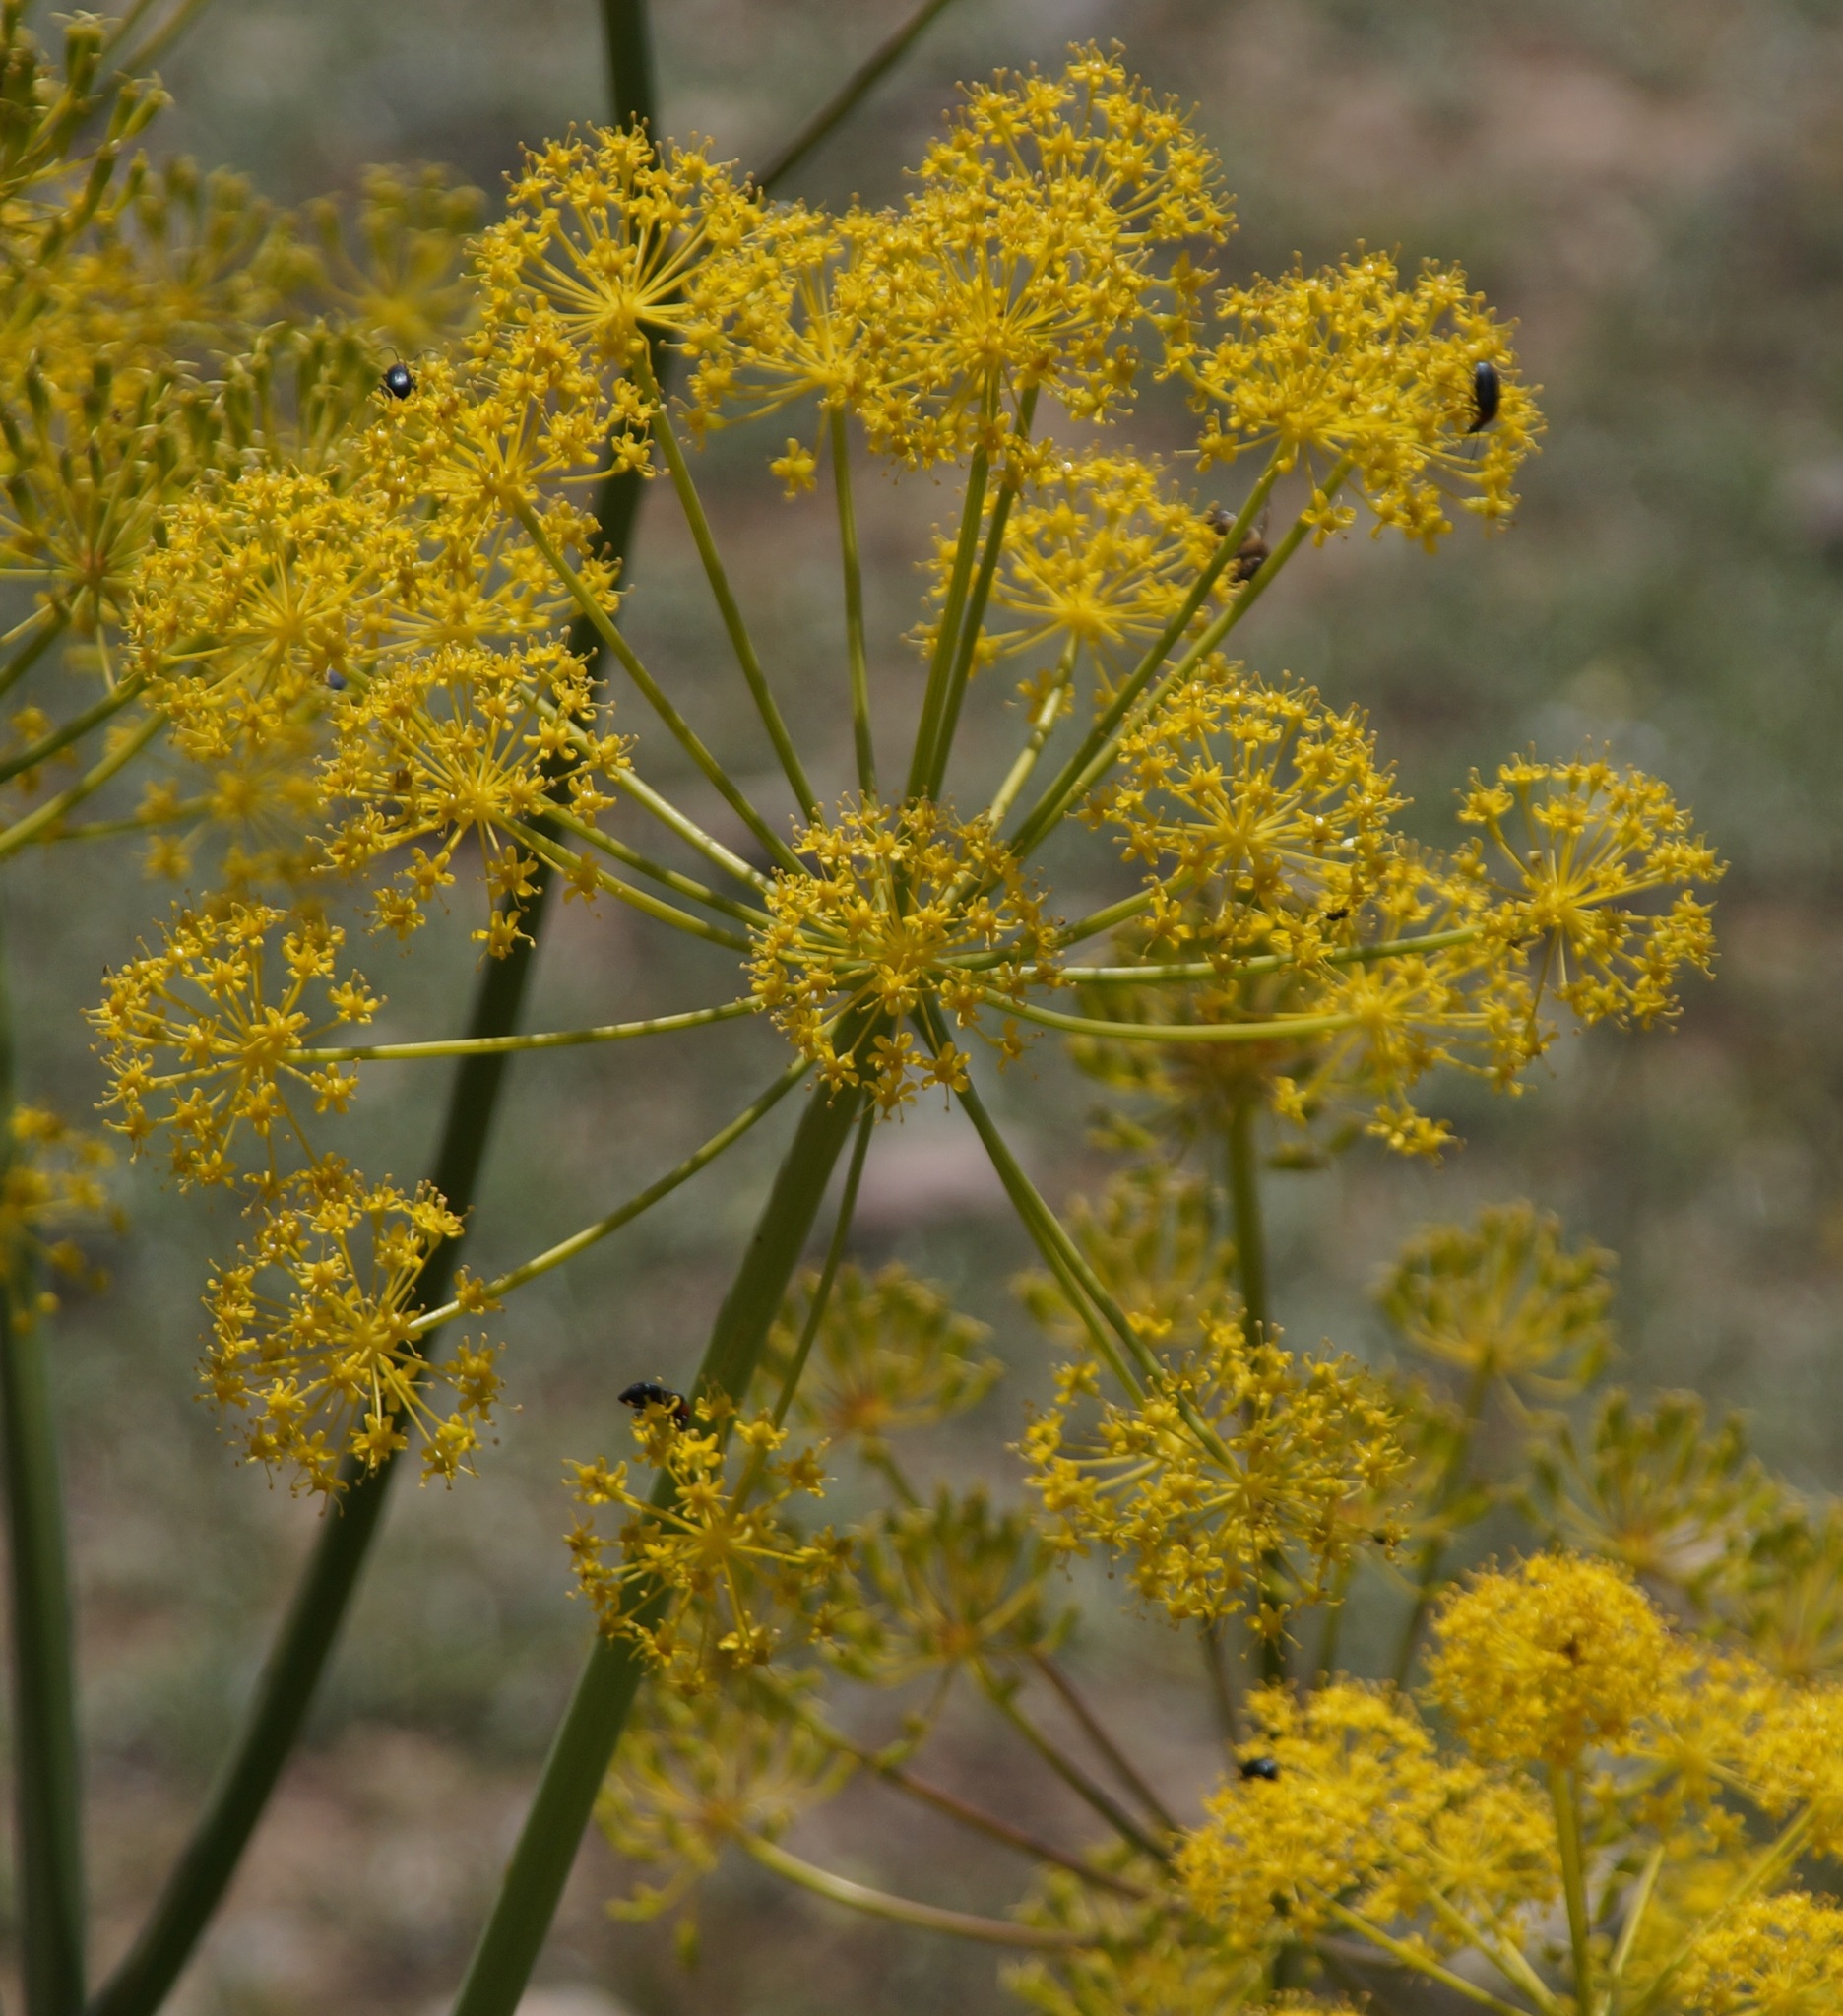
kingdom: Plantae
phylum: Tracheophyta
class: Magnoliopsida
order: Apiales
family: Apiaceae
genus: Thapsia
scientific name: Thapsia villosa
